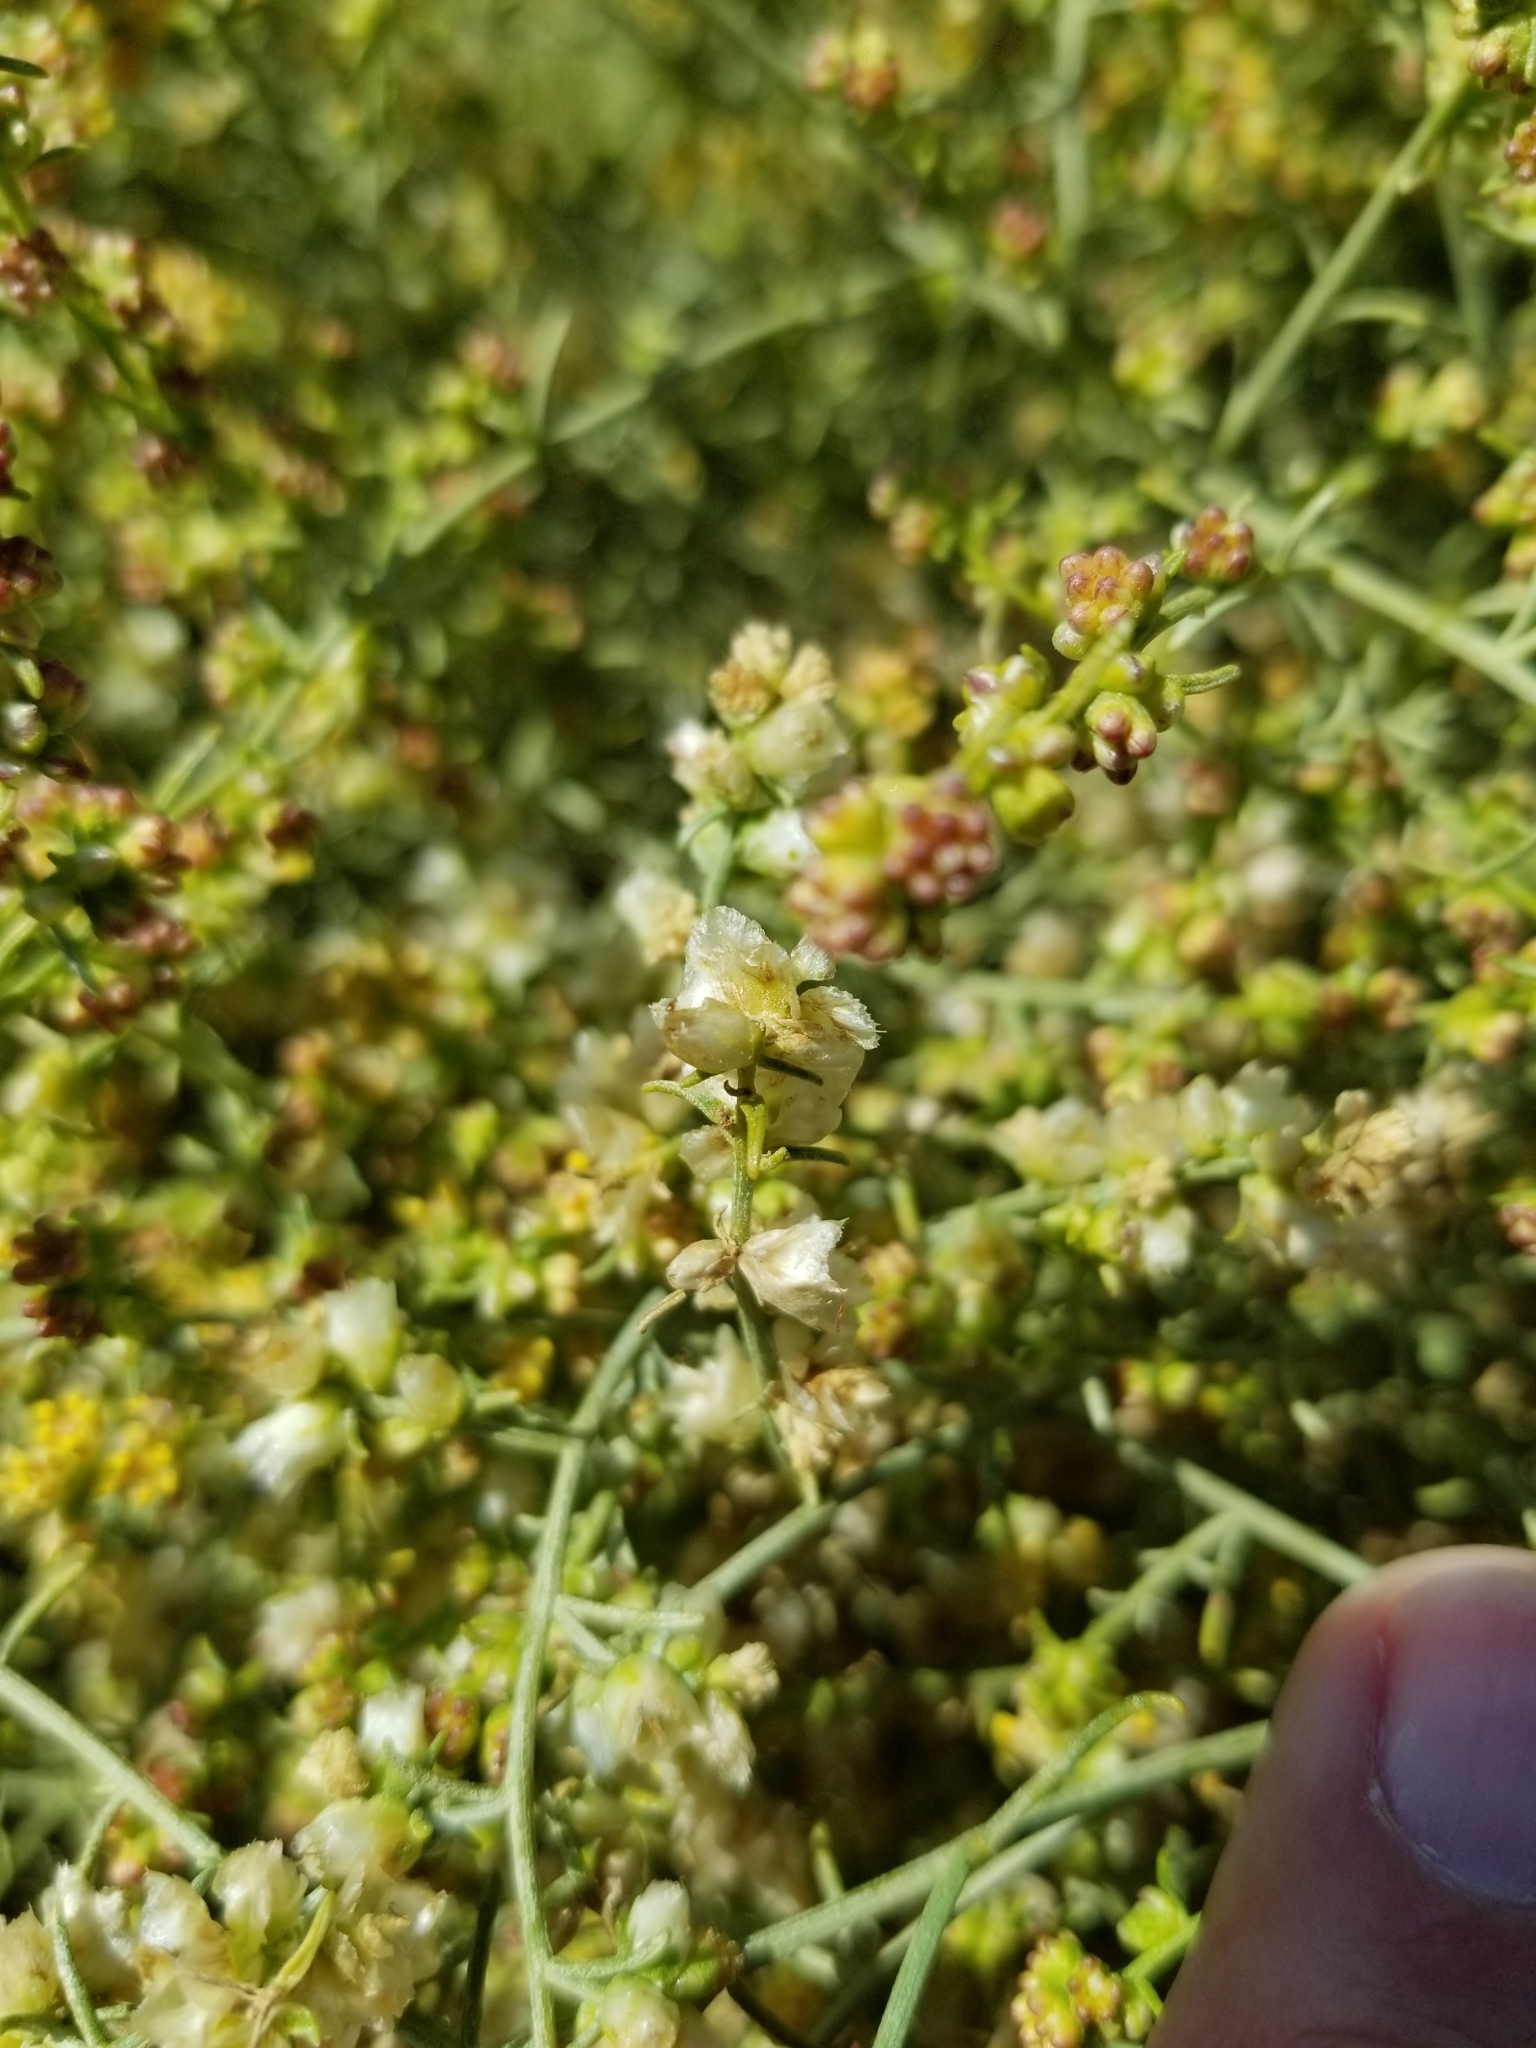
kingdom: Plantae
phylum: Tracheophyta
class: Magnoliopsida
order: Asterales
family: Asteraceae
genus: Ambrosia
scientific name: Ambrosia salsola
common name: Burrobrush
